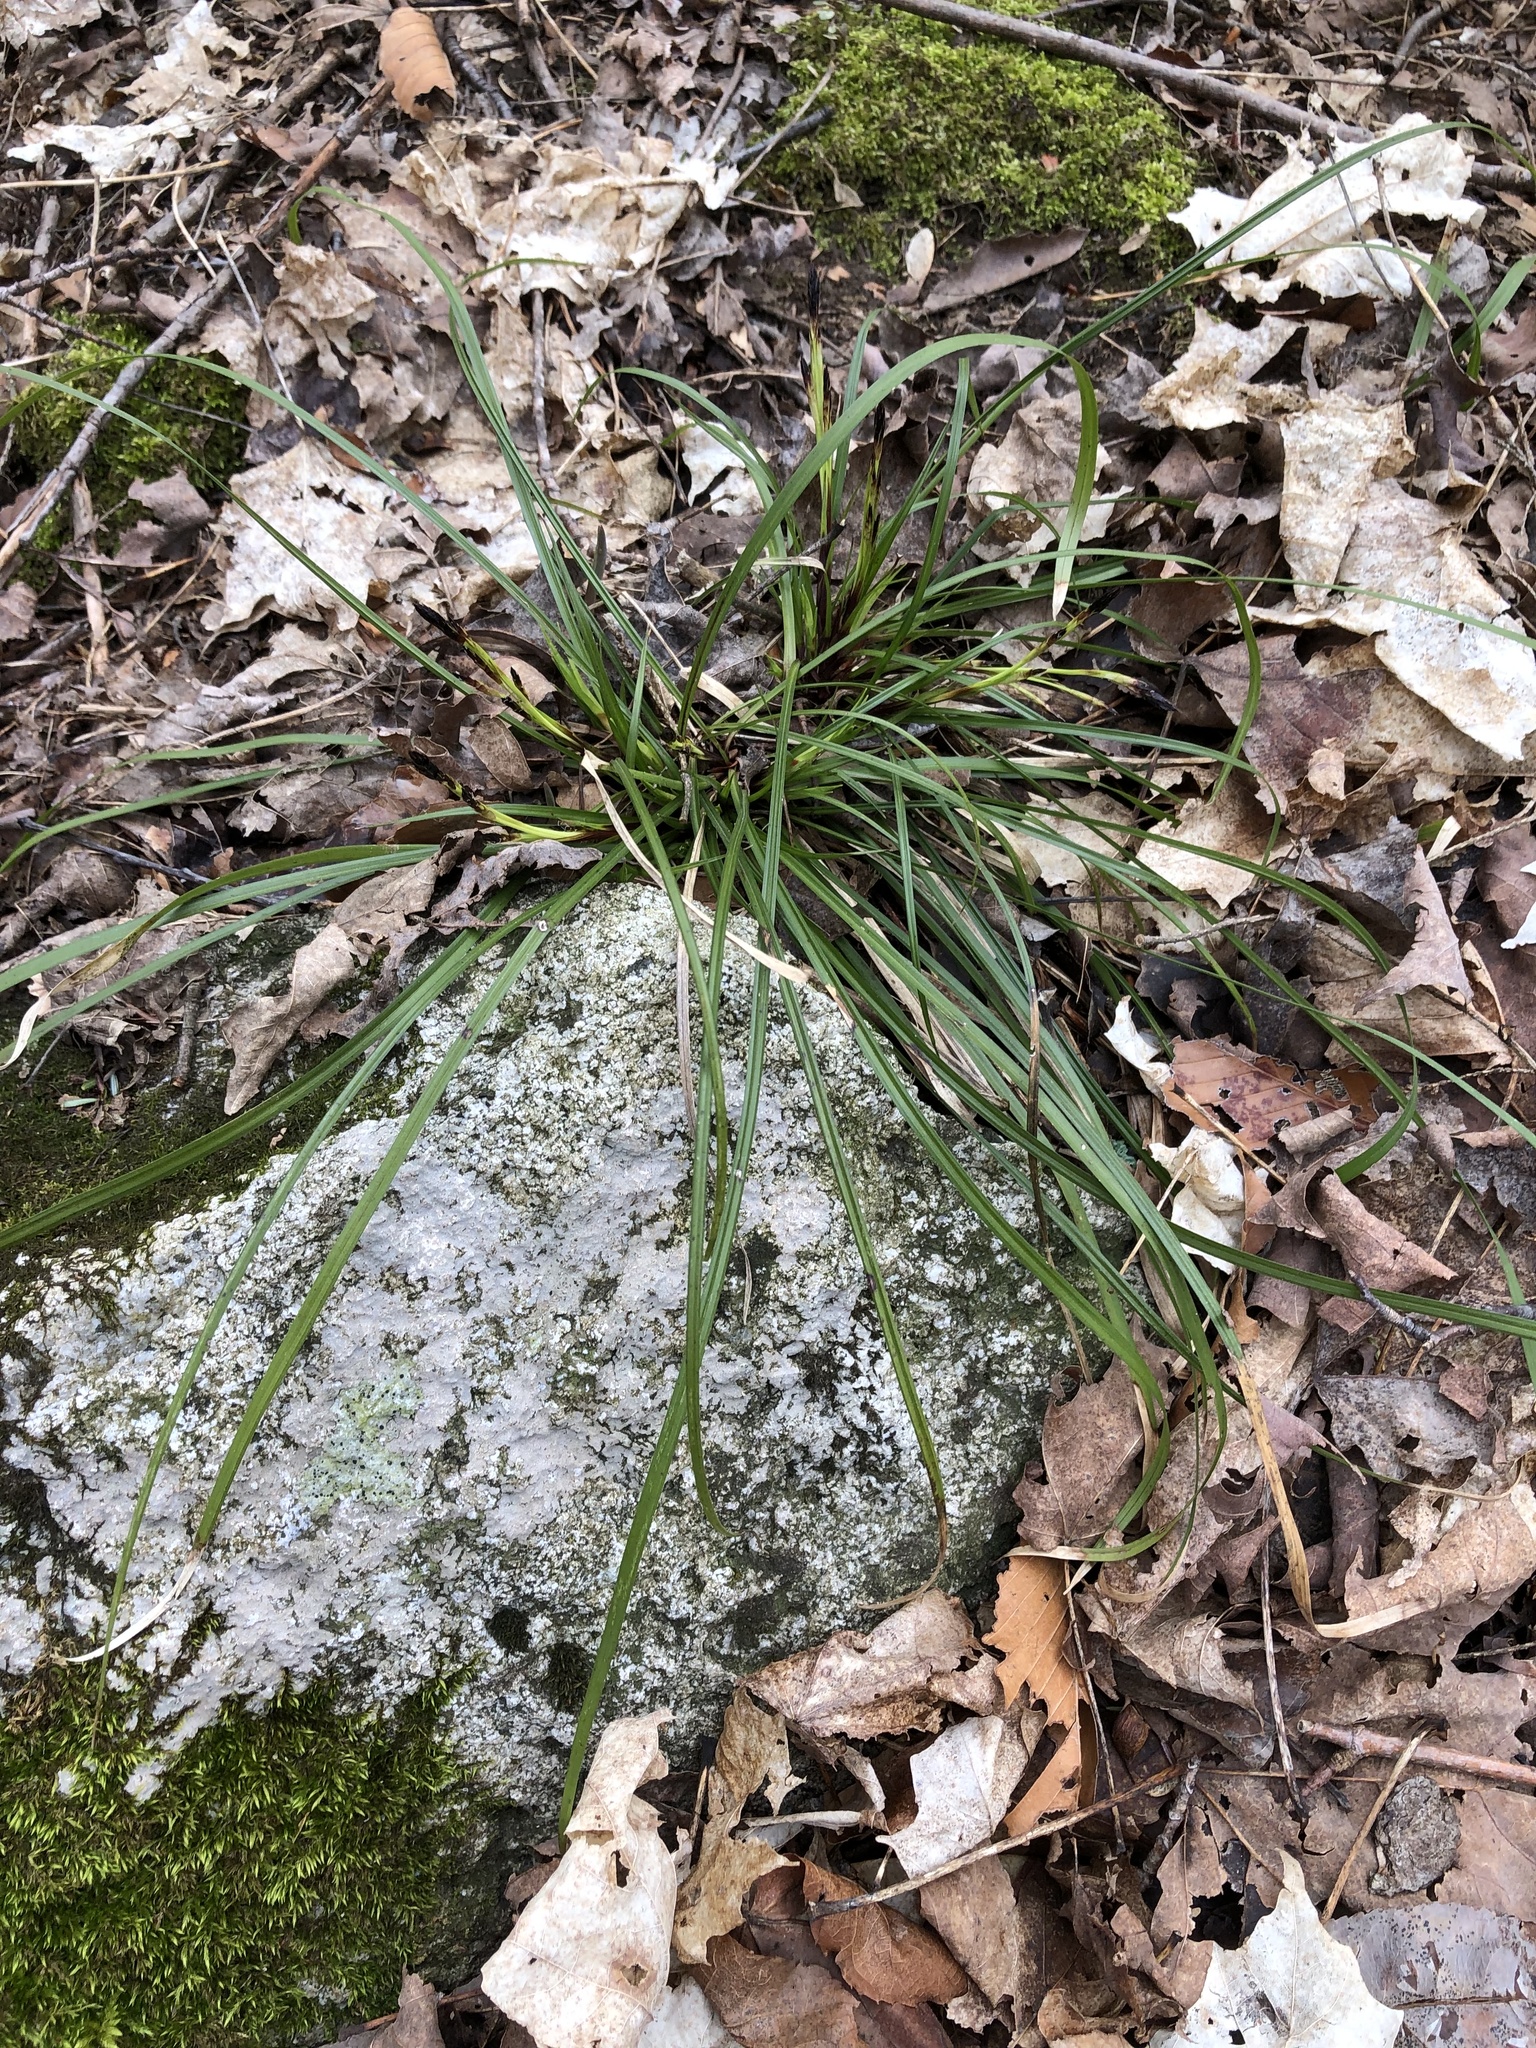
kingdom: Plantae
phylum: Tracheophyta
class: Liliopsida
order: Poales
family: Cyperaceae
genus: Carex
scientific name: Carex pedunculata
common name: Pedunculate sedge
